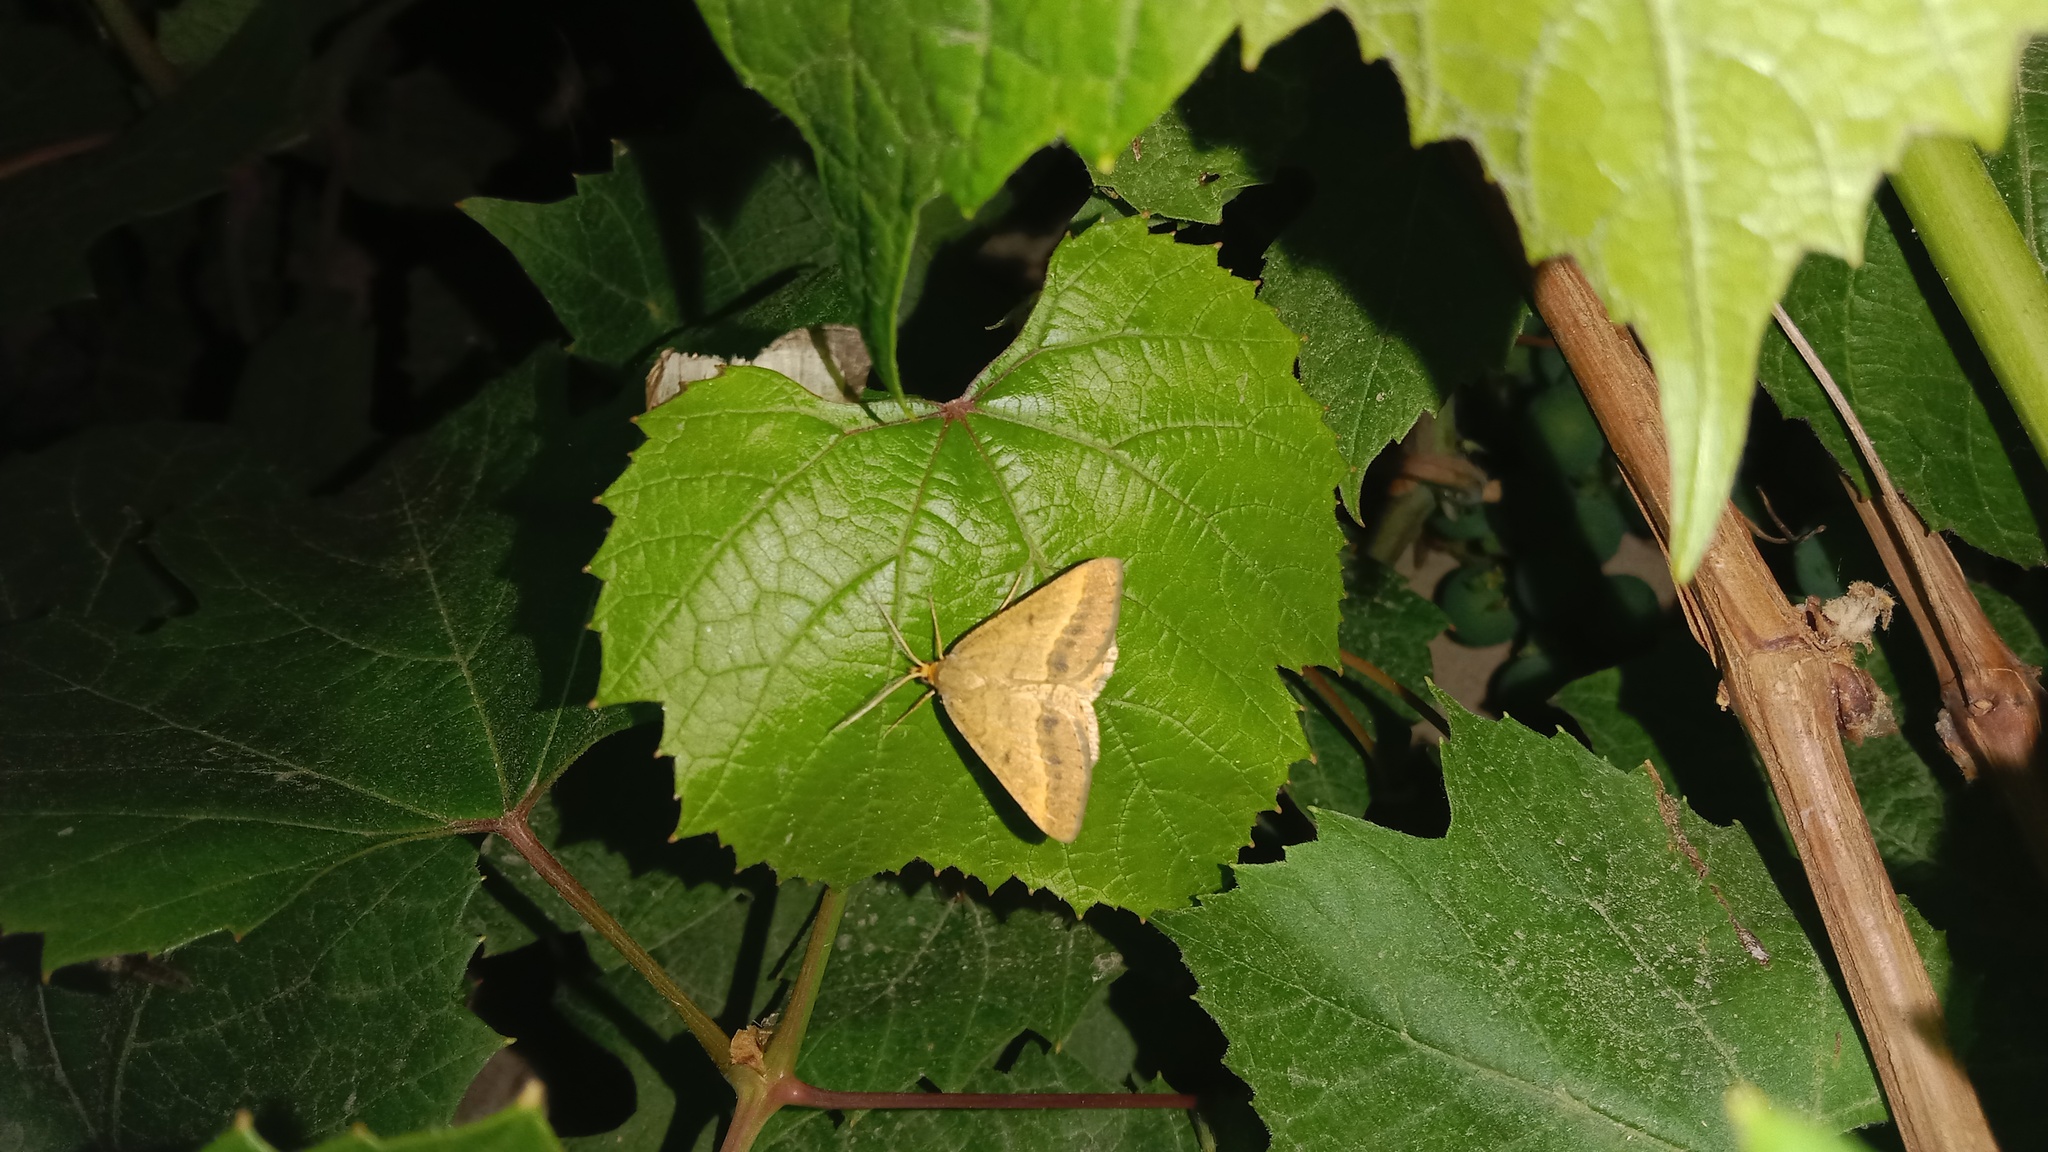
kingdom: Animalia
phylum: Arthropoda
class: Insecta
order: Lepidoptera
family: Geometridae
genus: Tephrina
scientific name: Tephrina arenacearia
